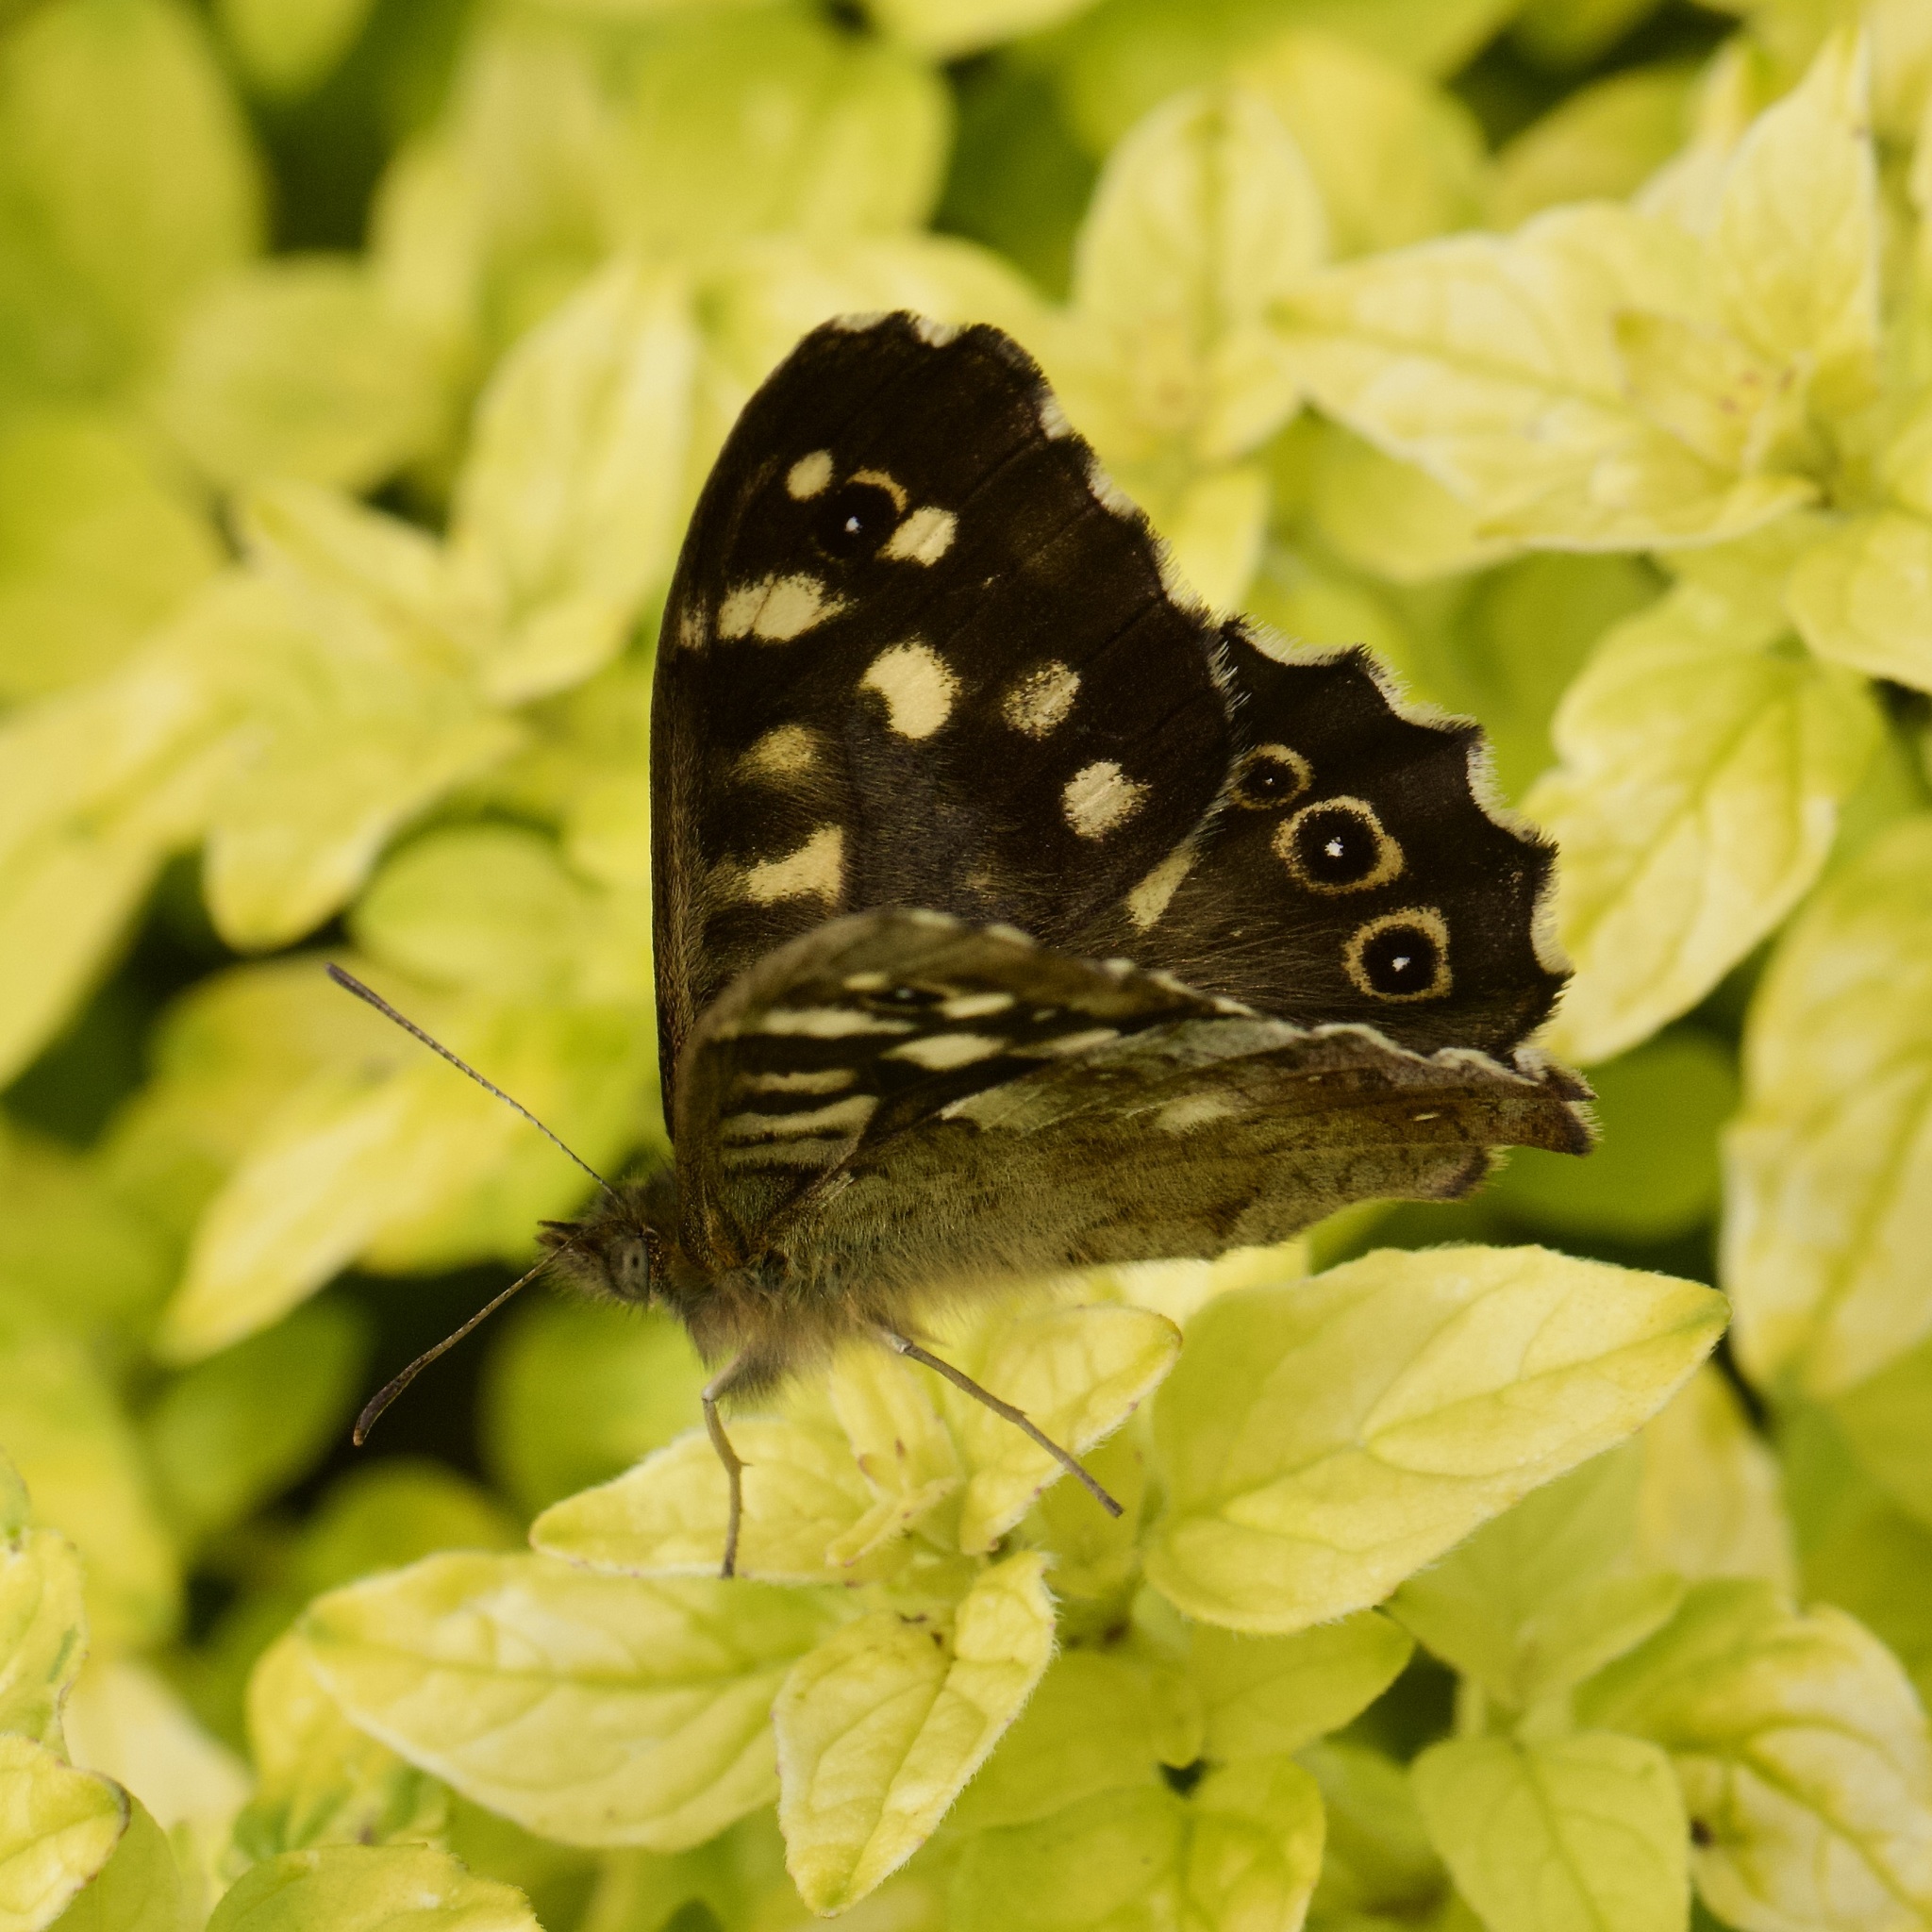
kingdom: Animalia
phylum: Arthropoda
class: Insecta
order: Lepidoptera
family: Nymphalidae
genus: Pararge
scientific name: Pararge aegeria
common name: Speckled wood
